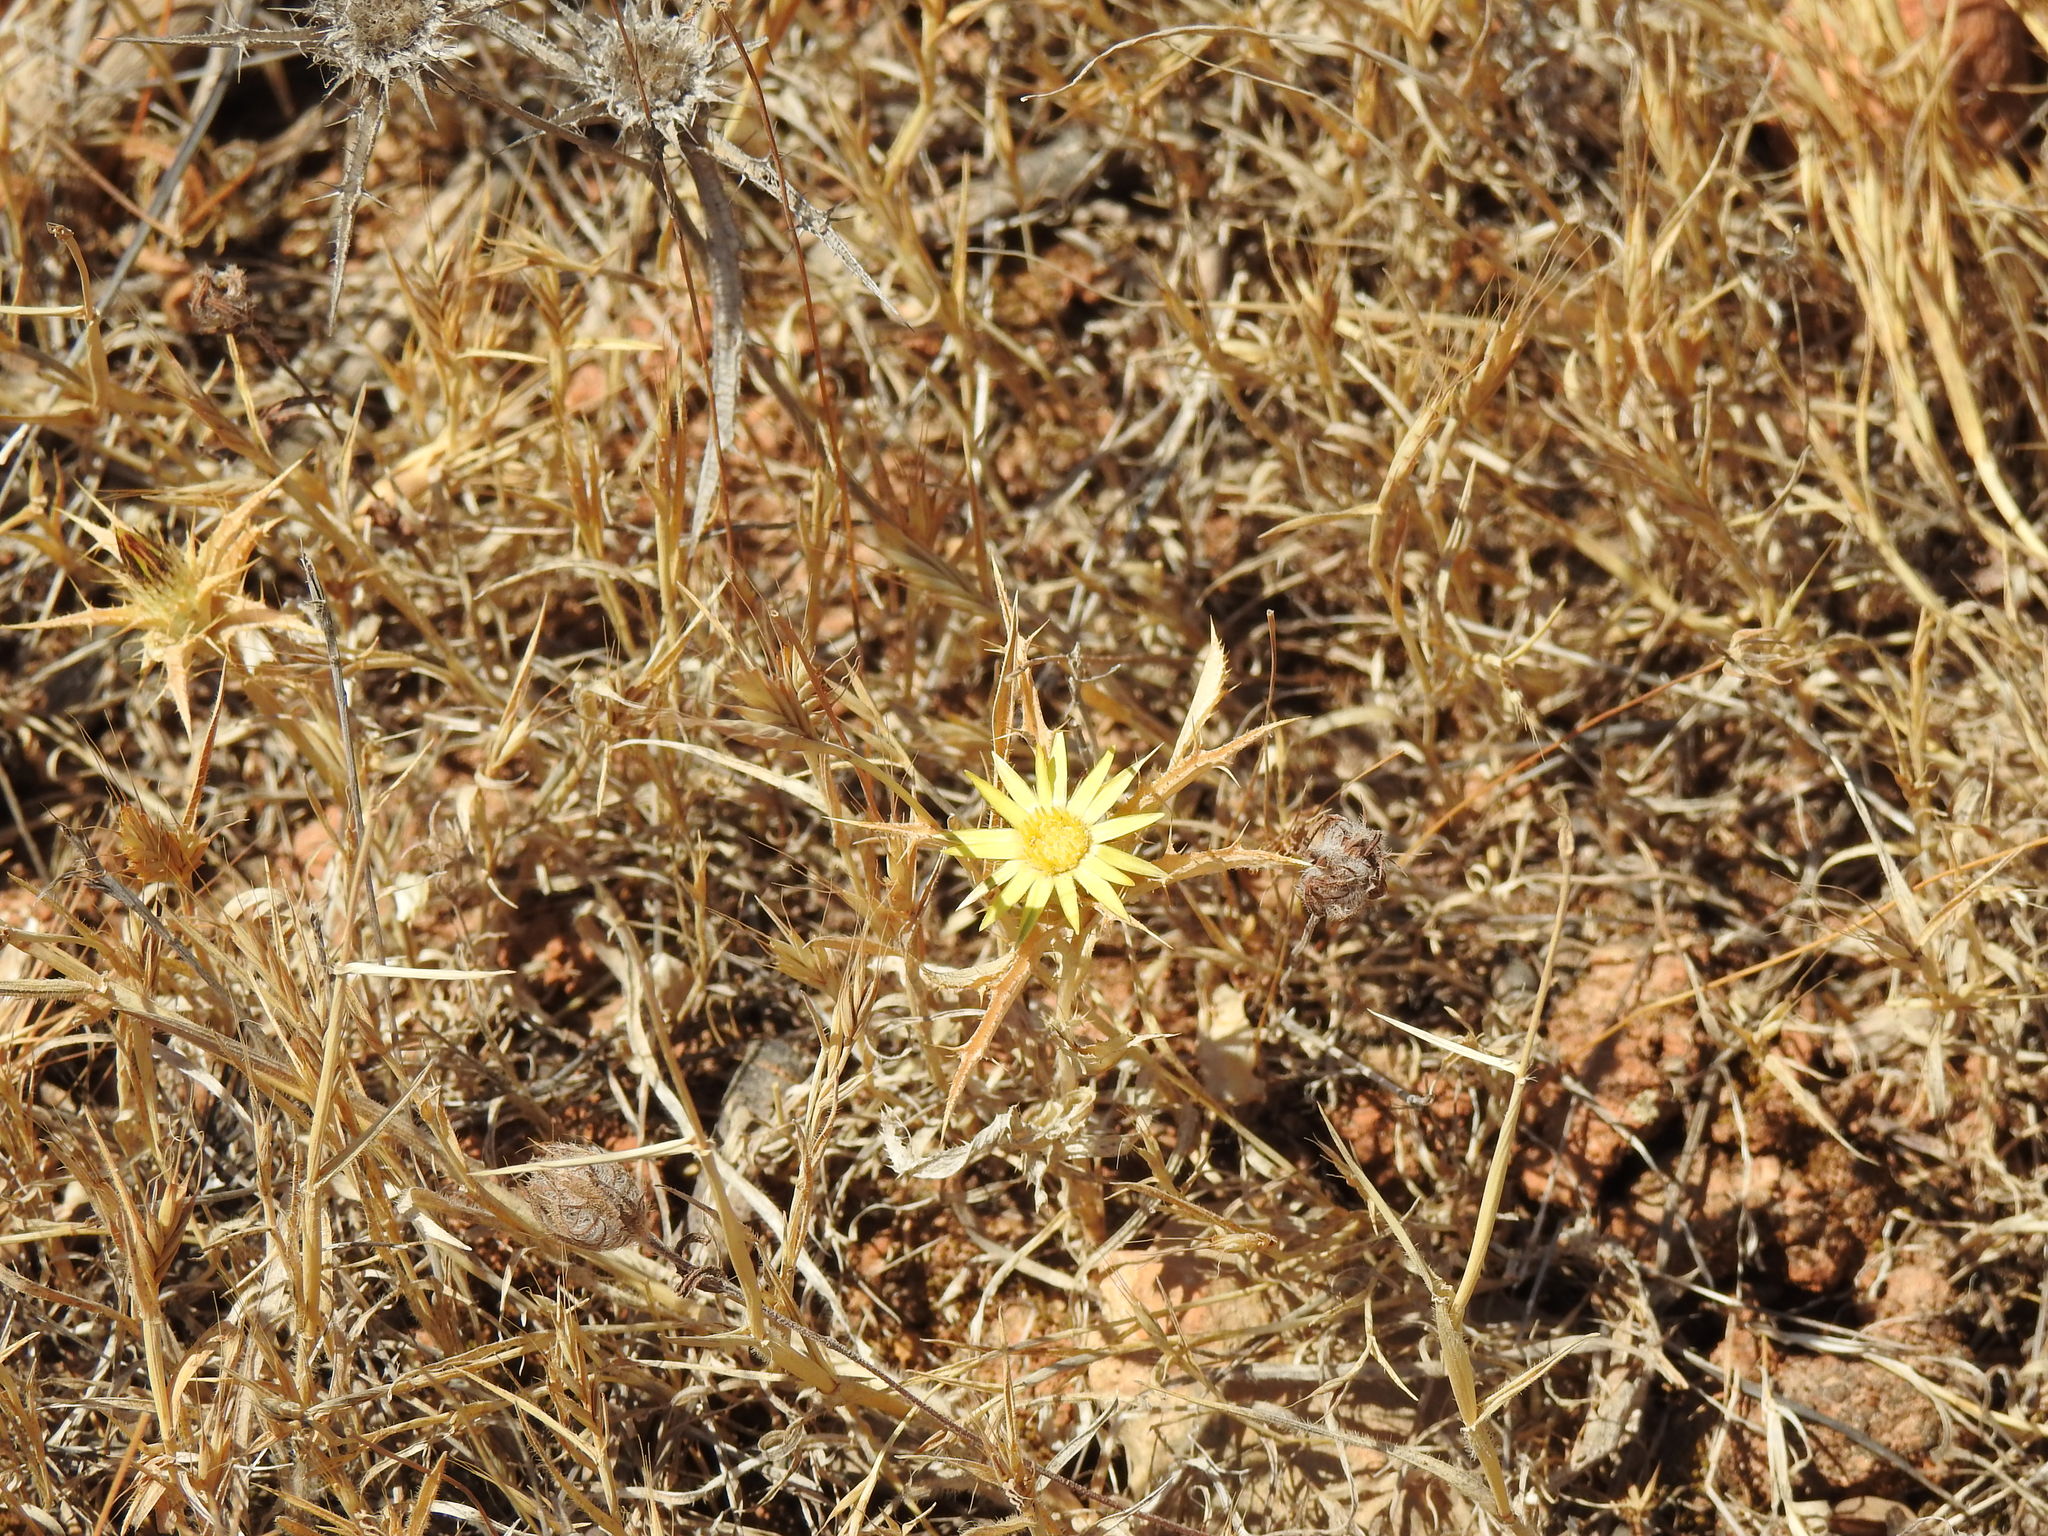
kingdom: Plantae
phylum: Tracheophyta
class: Magnoliopsida
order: Asterales
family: Asteraceae
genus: Carlina
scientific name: Carlina racemosa
